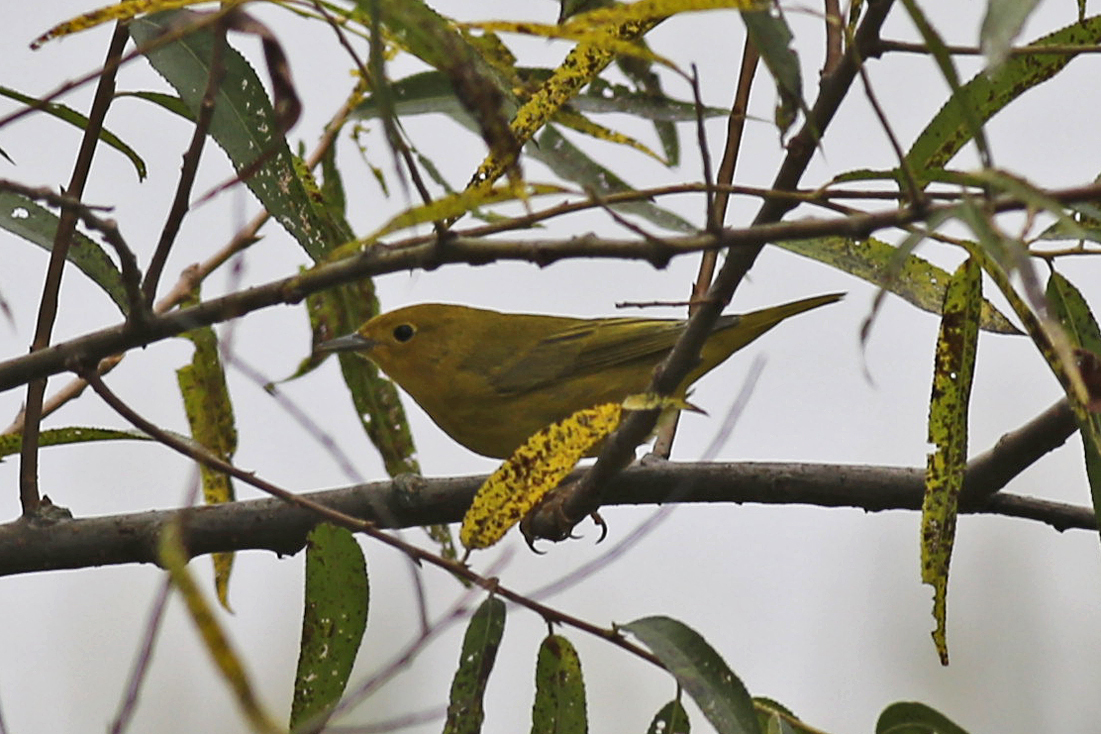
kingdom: Animalia
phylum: Chordata
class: Aves
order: Passeriformes
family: Parulidae
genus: Setophaga
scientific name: Setophaga petechia
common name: Yellow warbler
